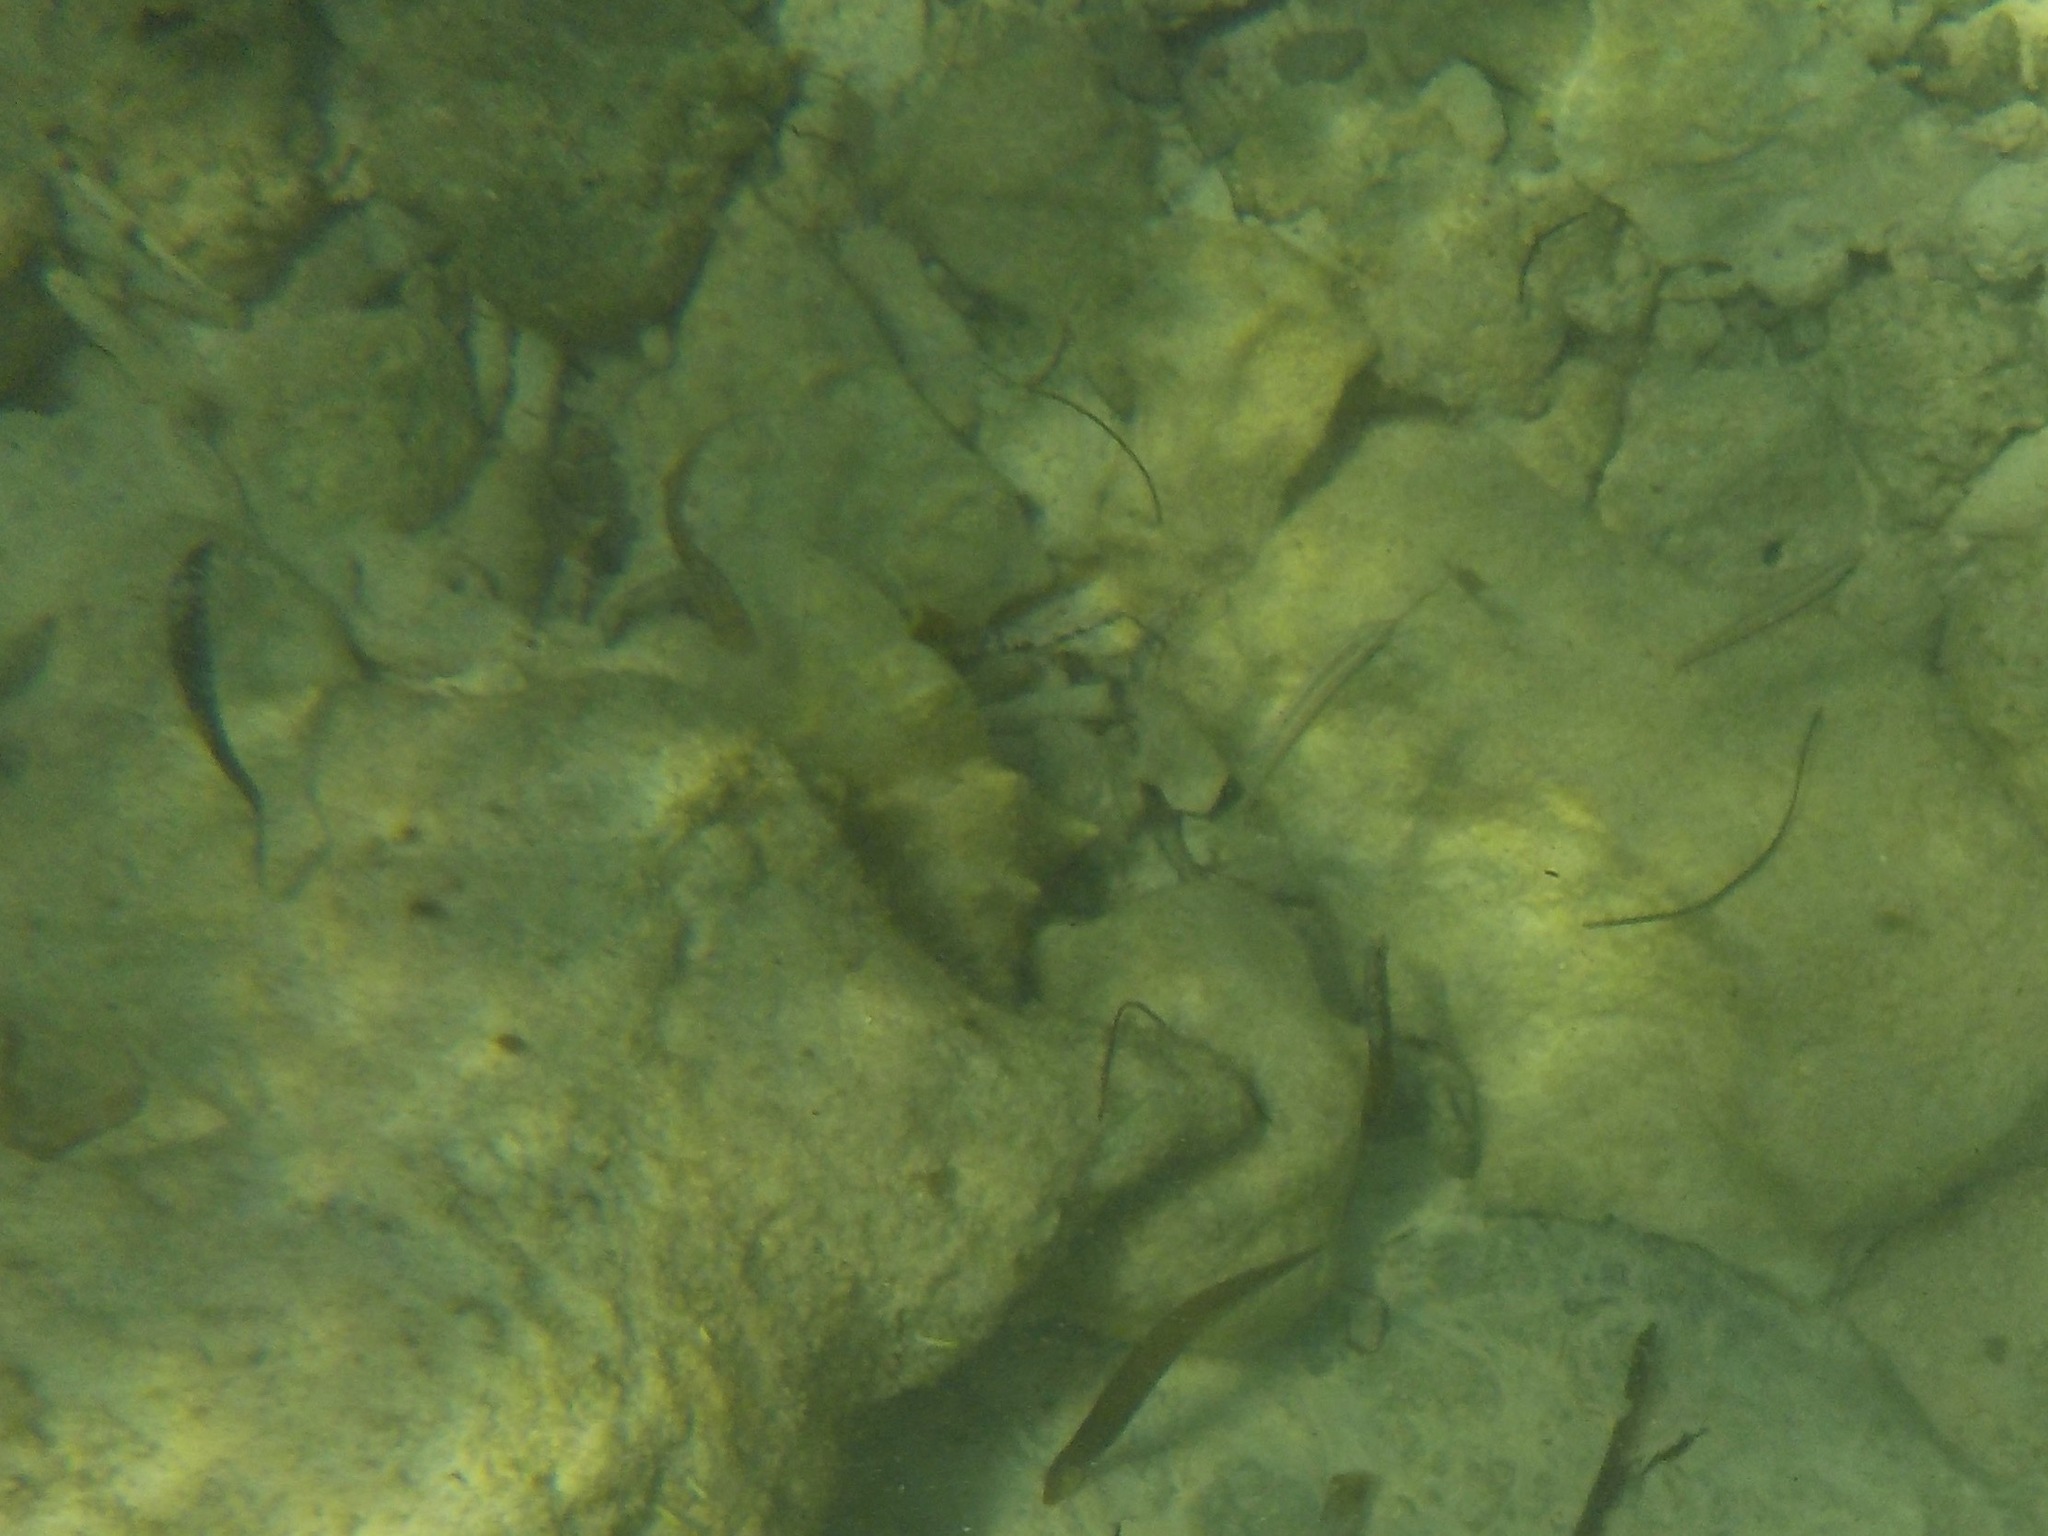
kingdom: Animalia
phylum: Mollusca
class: Gastropoda
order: Littorinimorpha
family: Strombidae
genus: Aliger
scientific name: Aliger gigas
